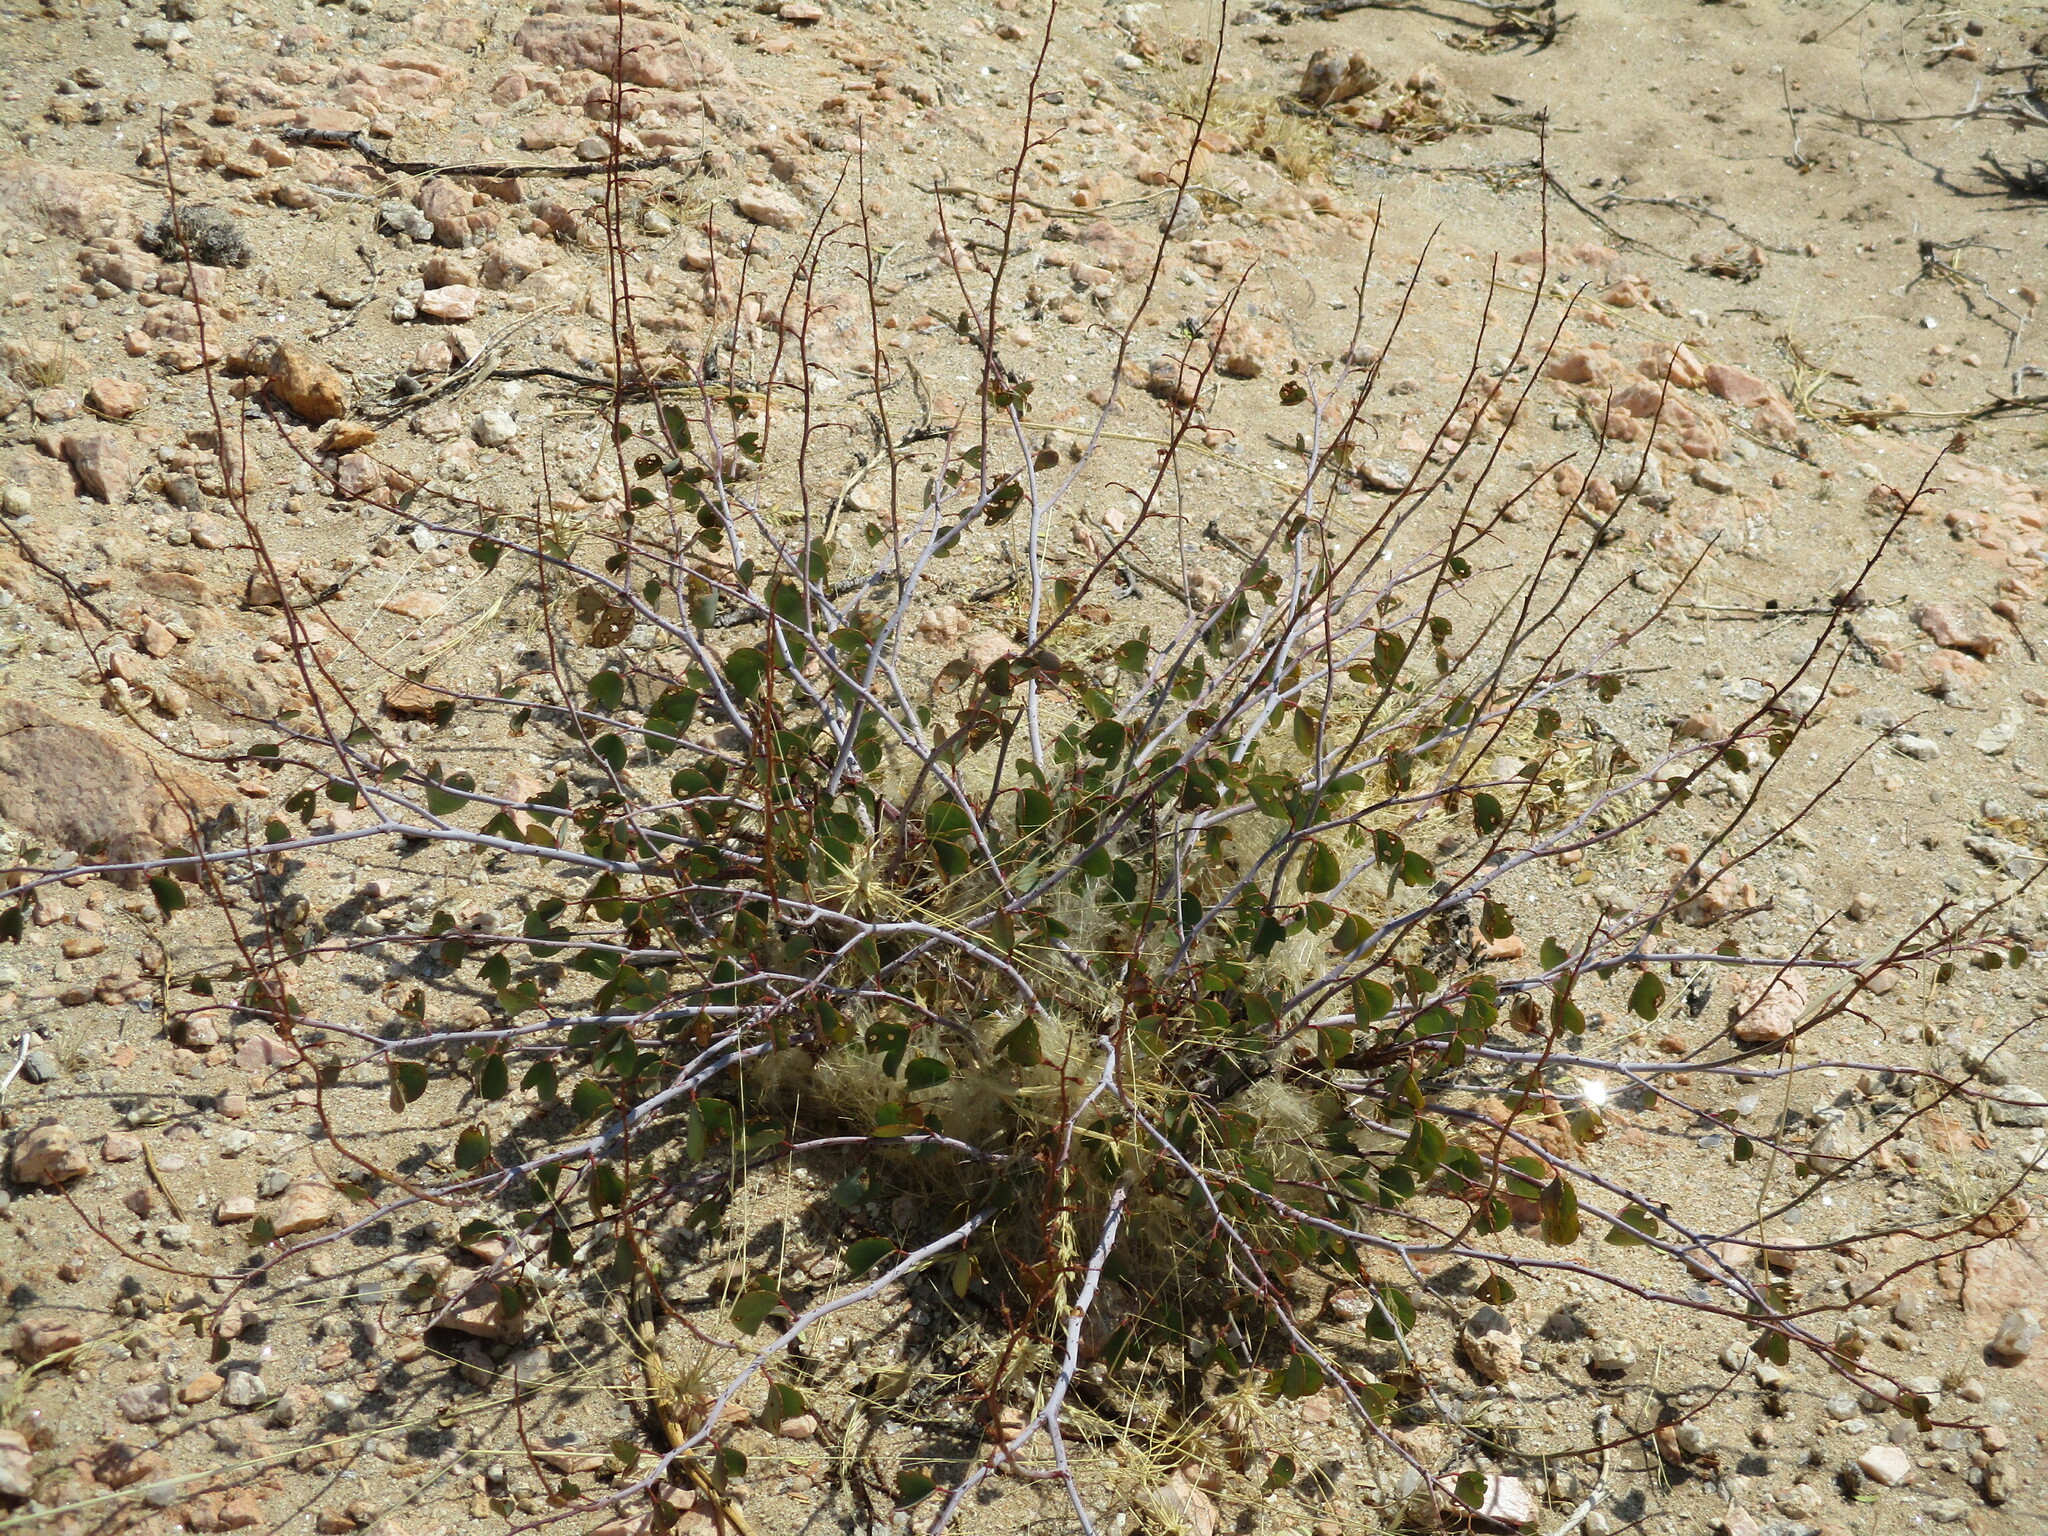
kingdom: Plantae
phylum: Tracheophyta
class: Magnoliopsida
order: Fabales
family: Fabaceae
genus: Adenolobus
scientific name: Adenolobus pechuelii
